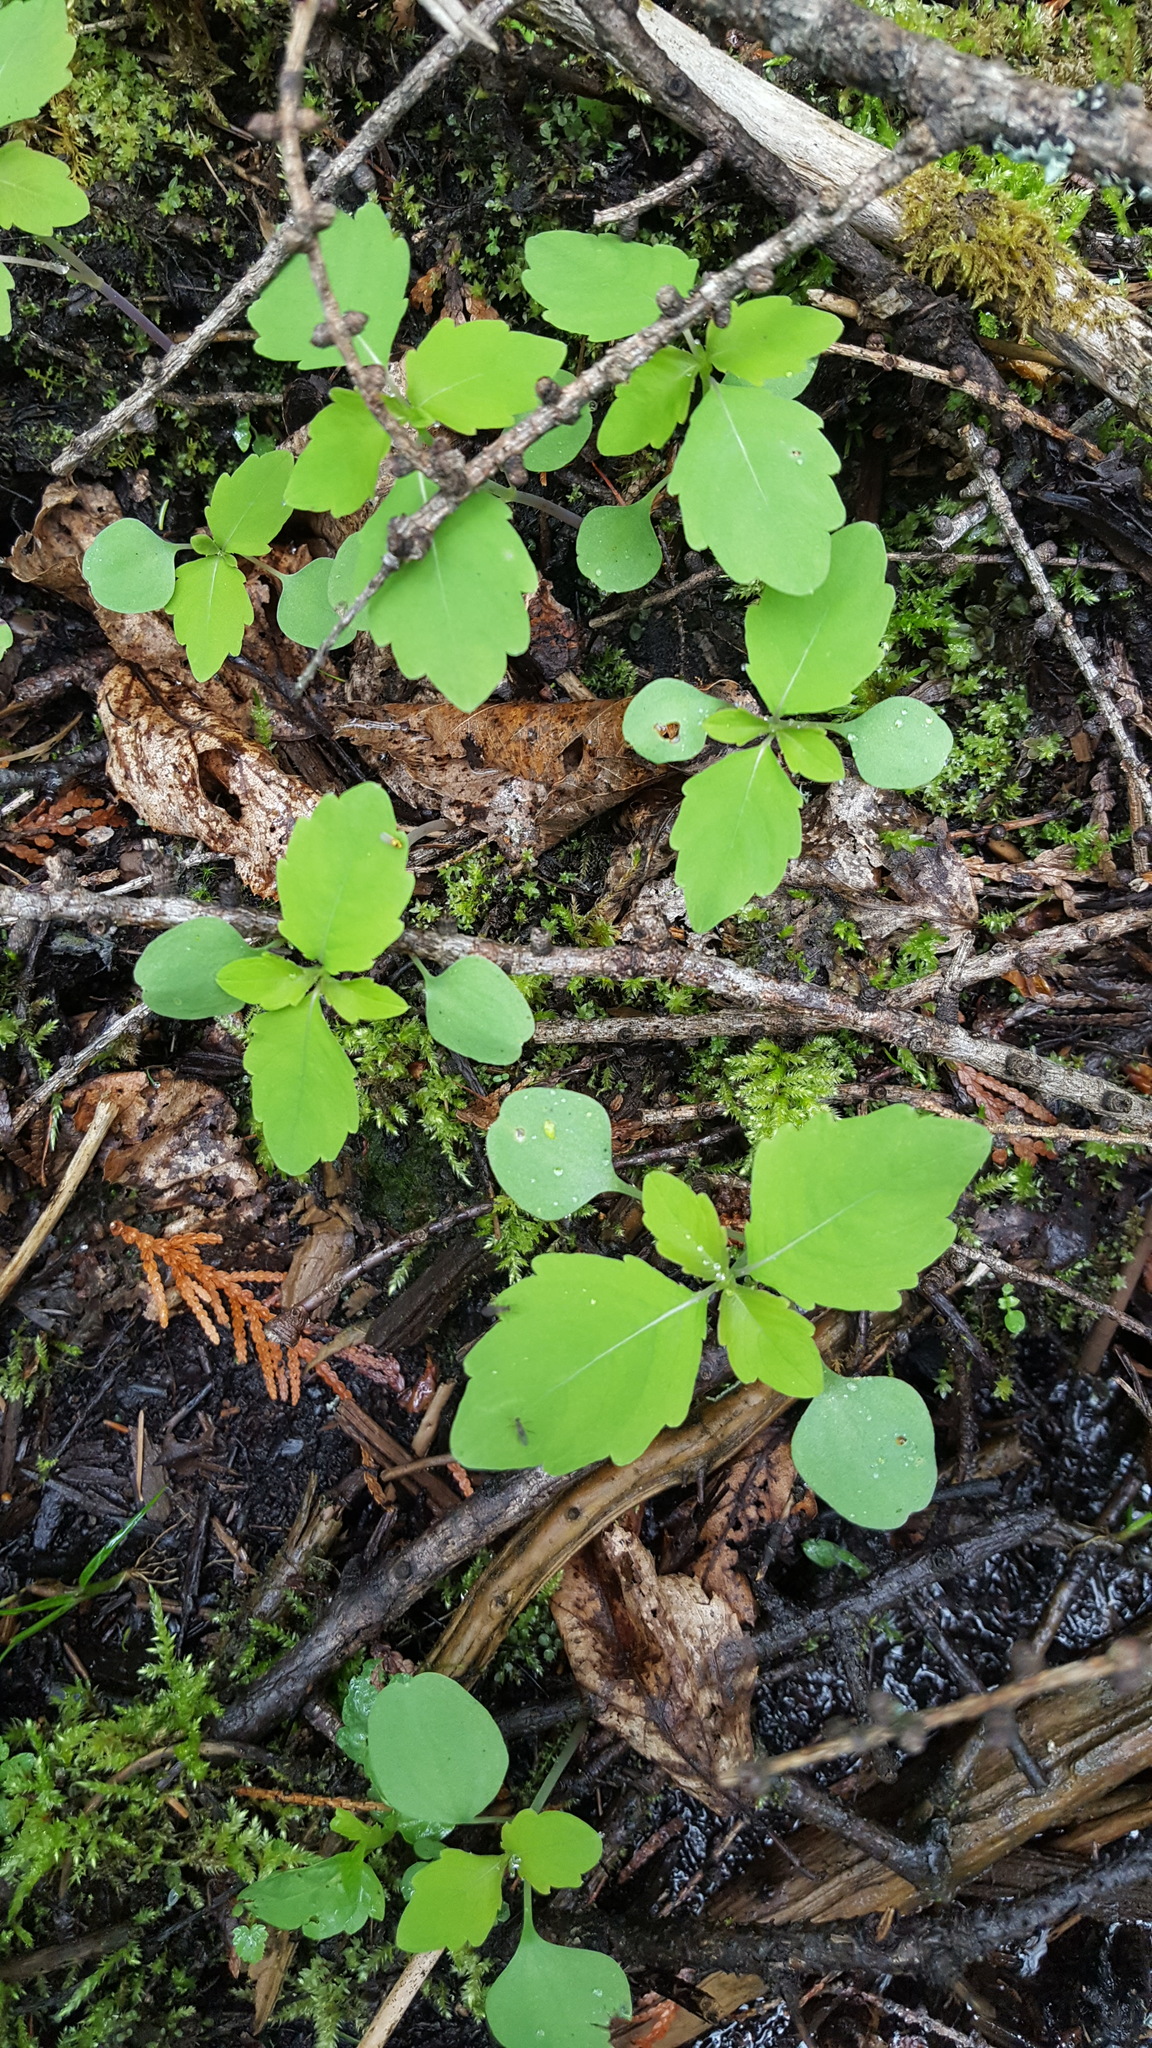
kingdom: Plantae
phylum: Tracheophyta
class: Magnoliopsida
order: Ericales
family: Balsaminaceae
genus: Impatiens
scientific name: Impatiens capensis
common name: Orange balsam
